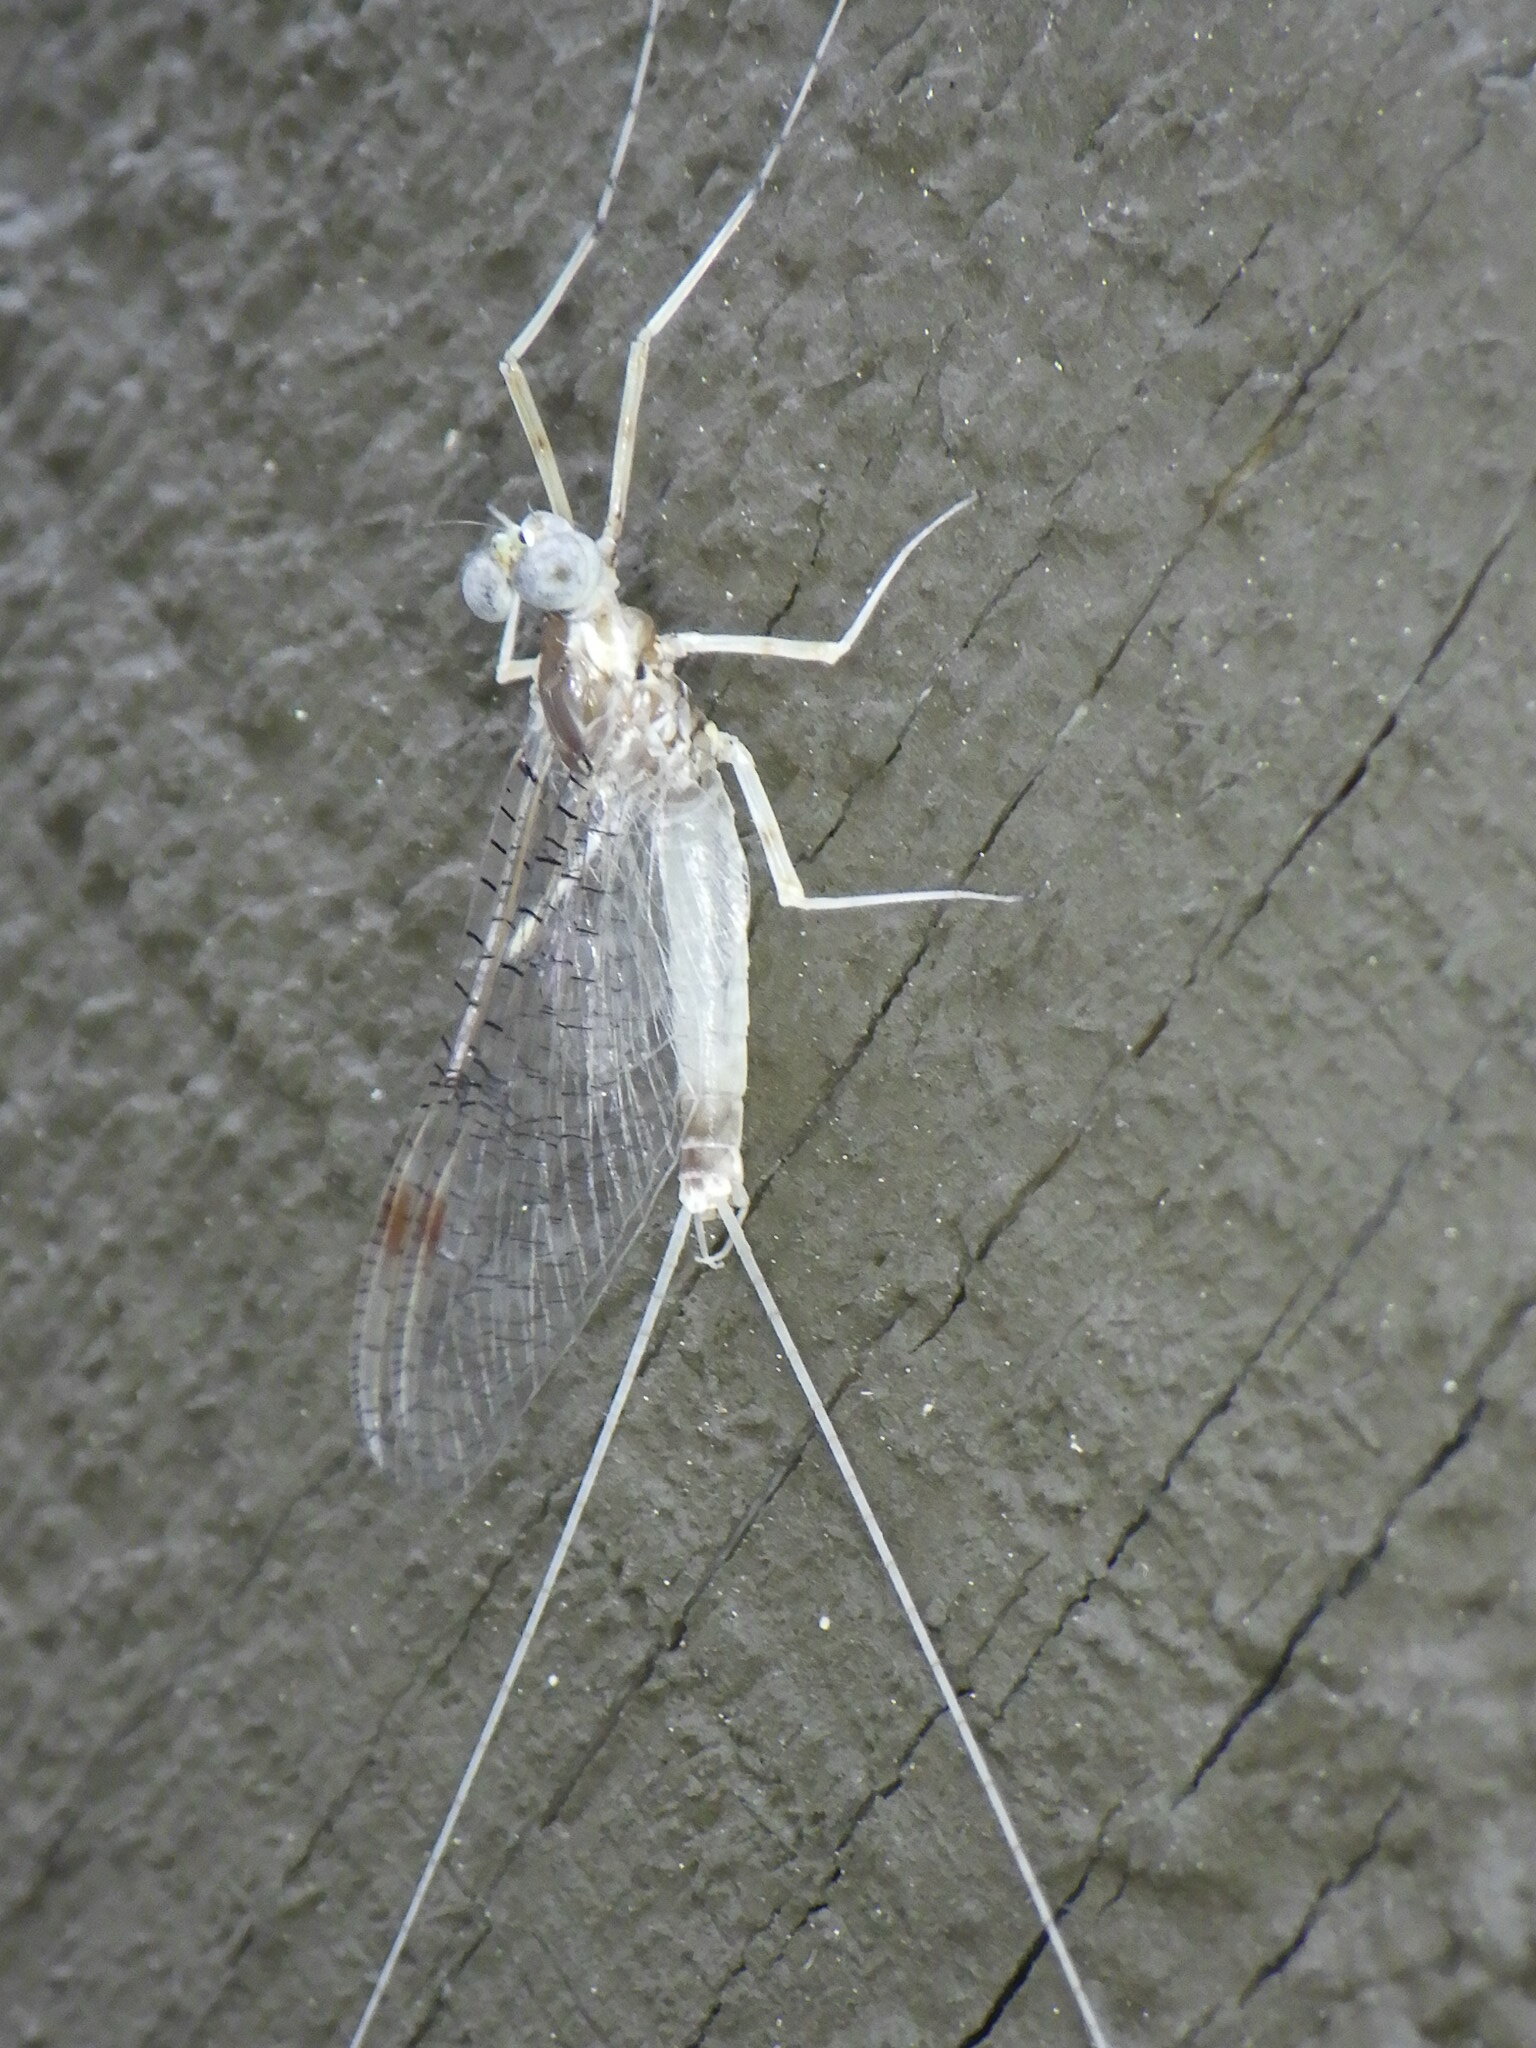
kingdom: Animalia
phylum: Arthropoda
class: Insecta
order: Ephemeroptera
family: Heptageniidae
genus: Stenonema
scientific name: Stenonema femoratum
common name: Dark cahill
